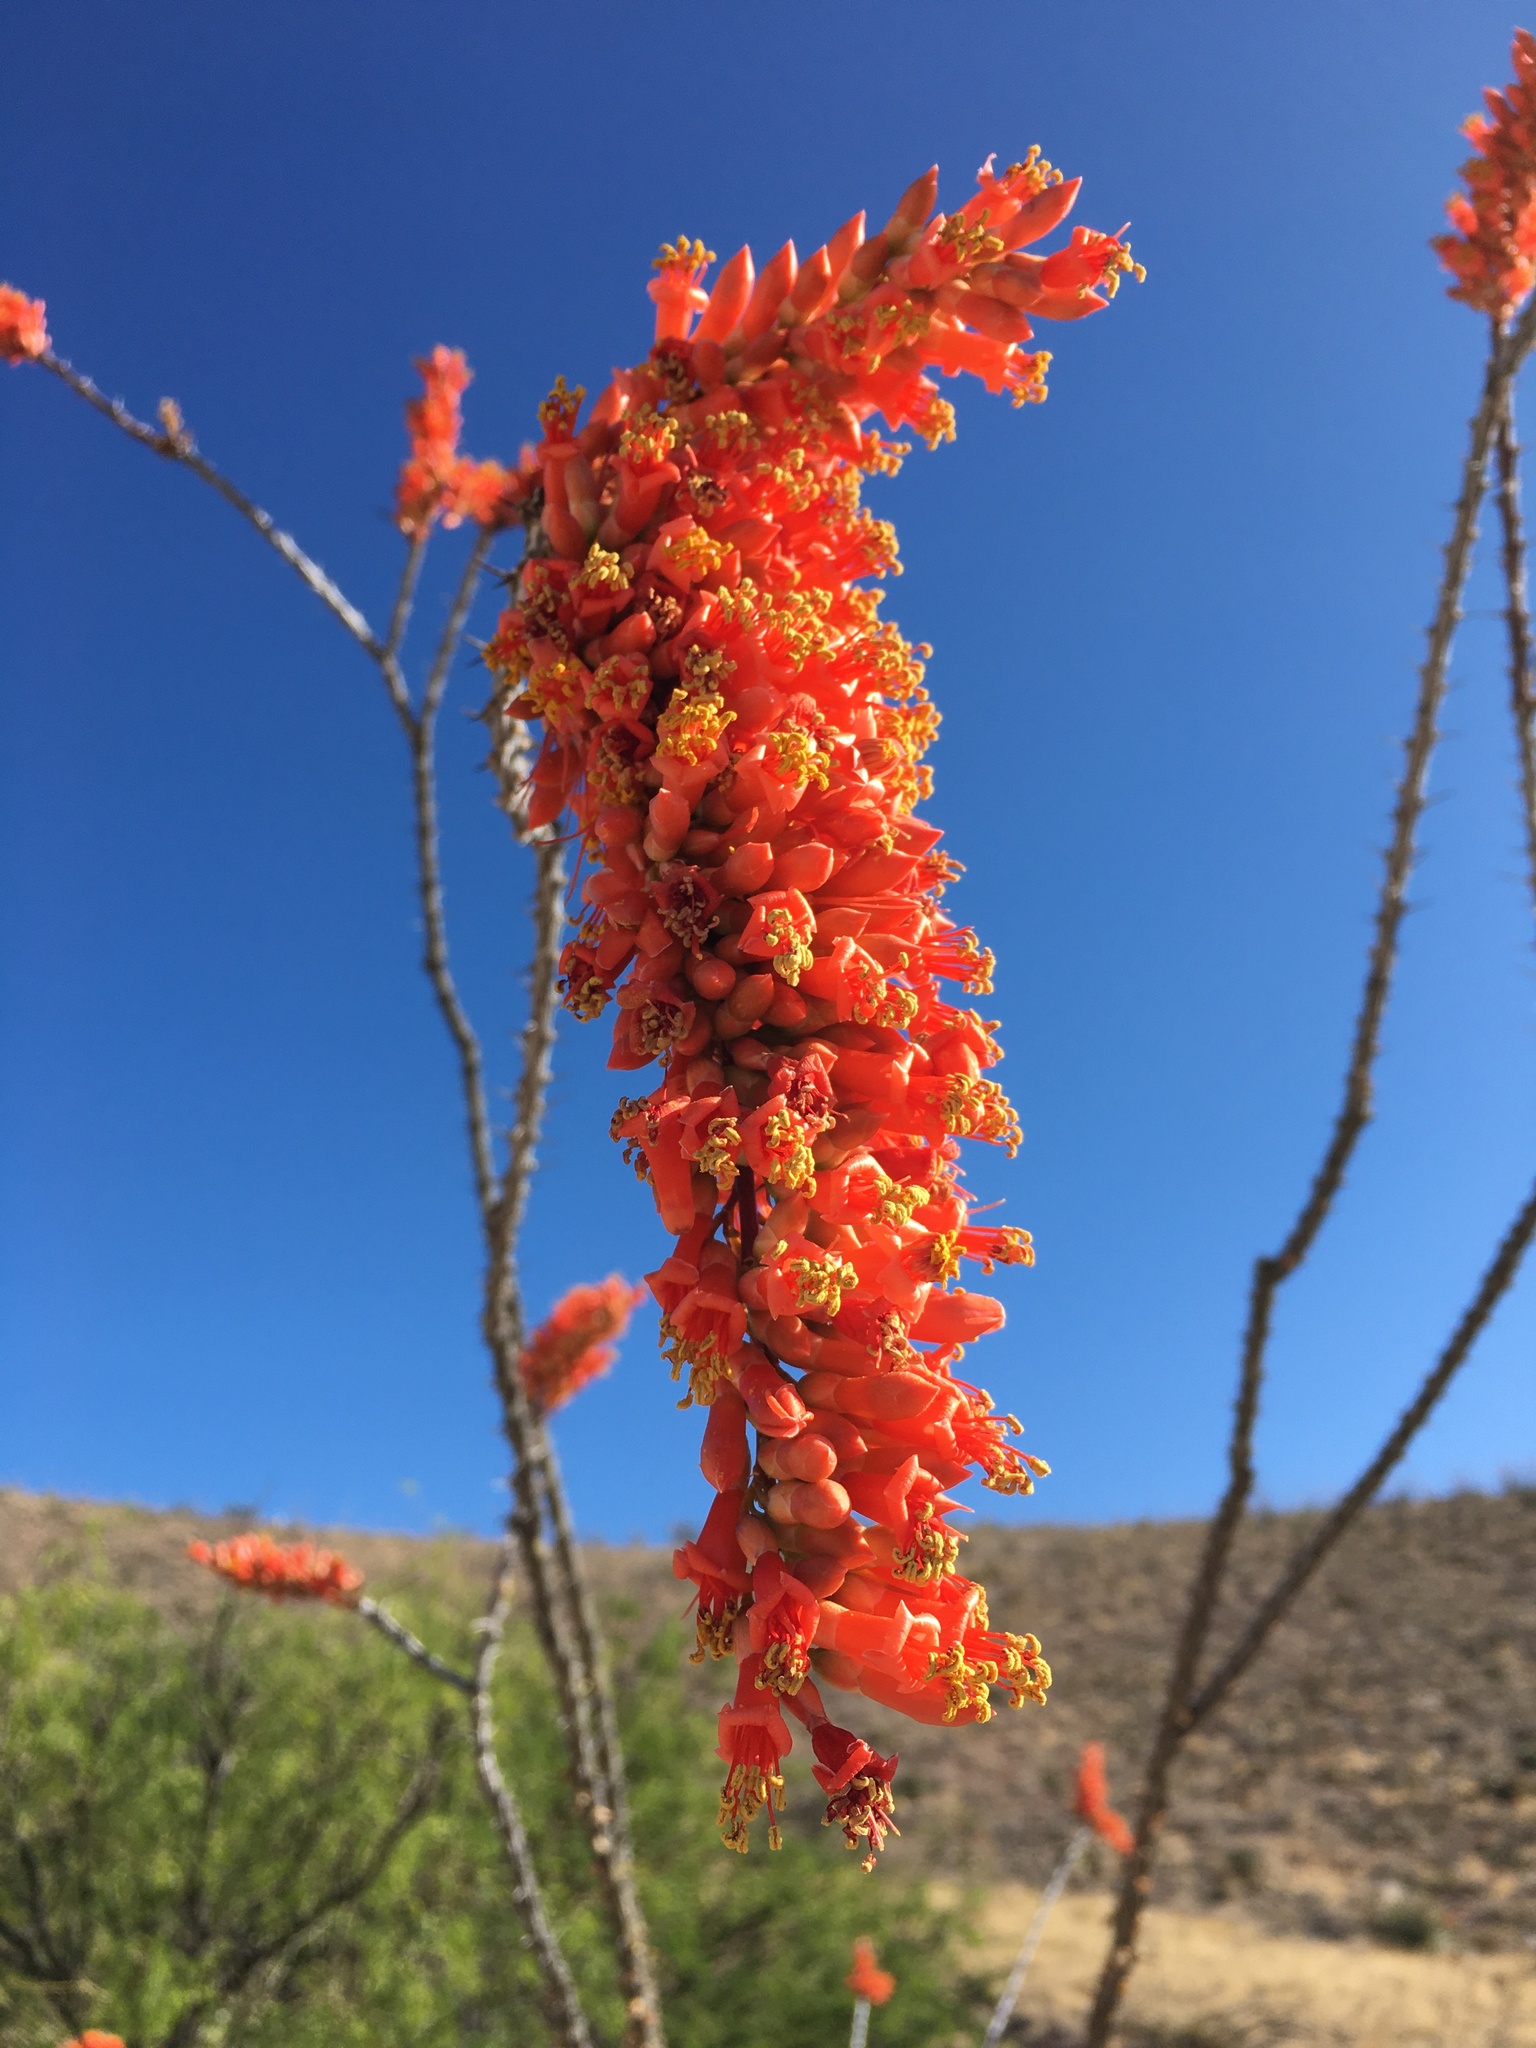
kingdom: Plantae
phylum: Tracheophyta
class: Magnoliopsida
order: Ericales
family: Fouquieriaceae
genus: Fouquieria
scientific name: Fouquieria splendens
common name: Vine-cactus
